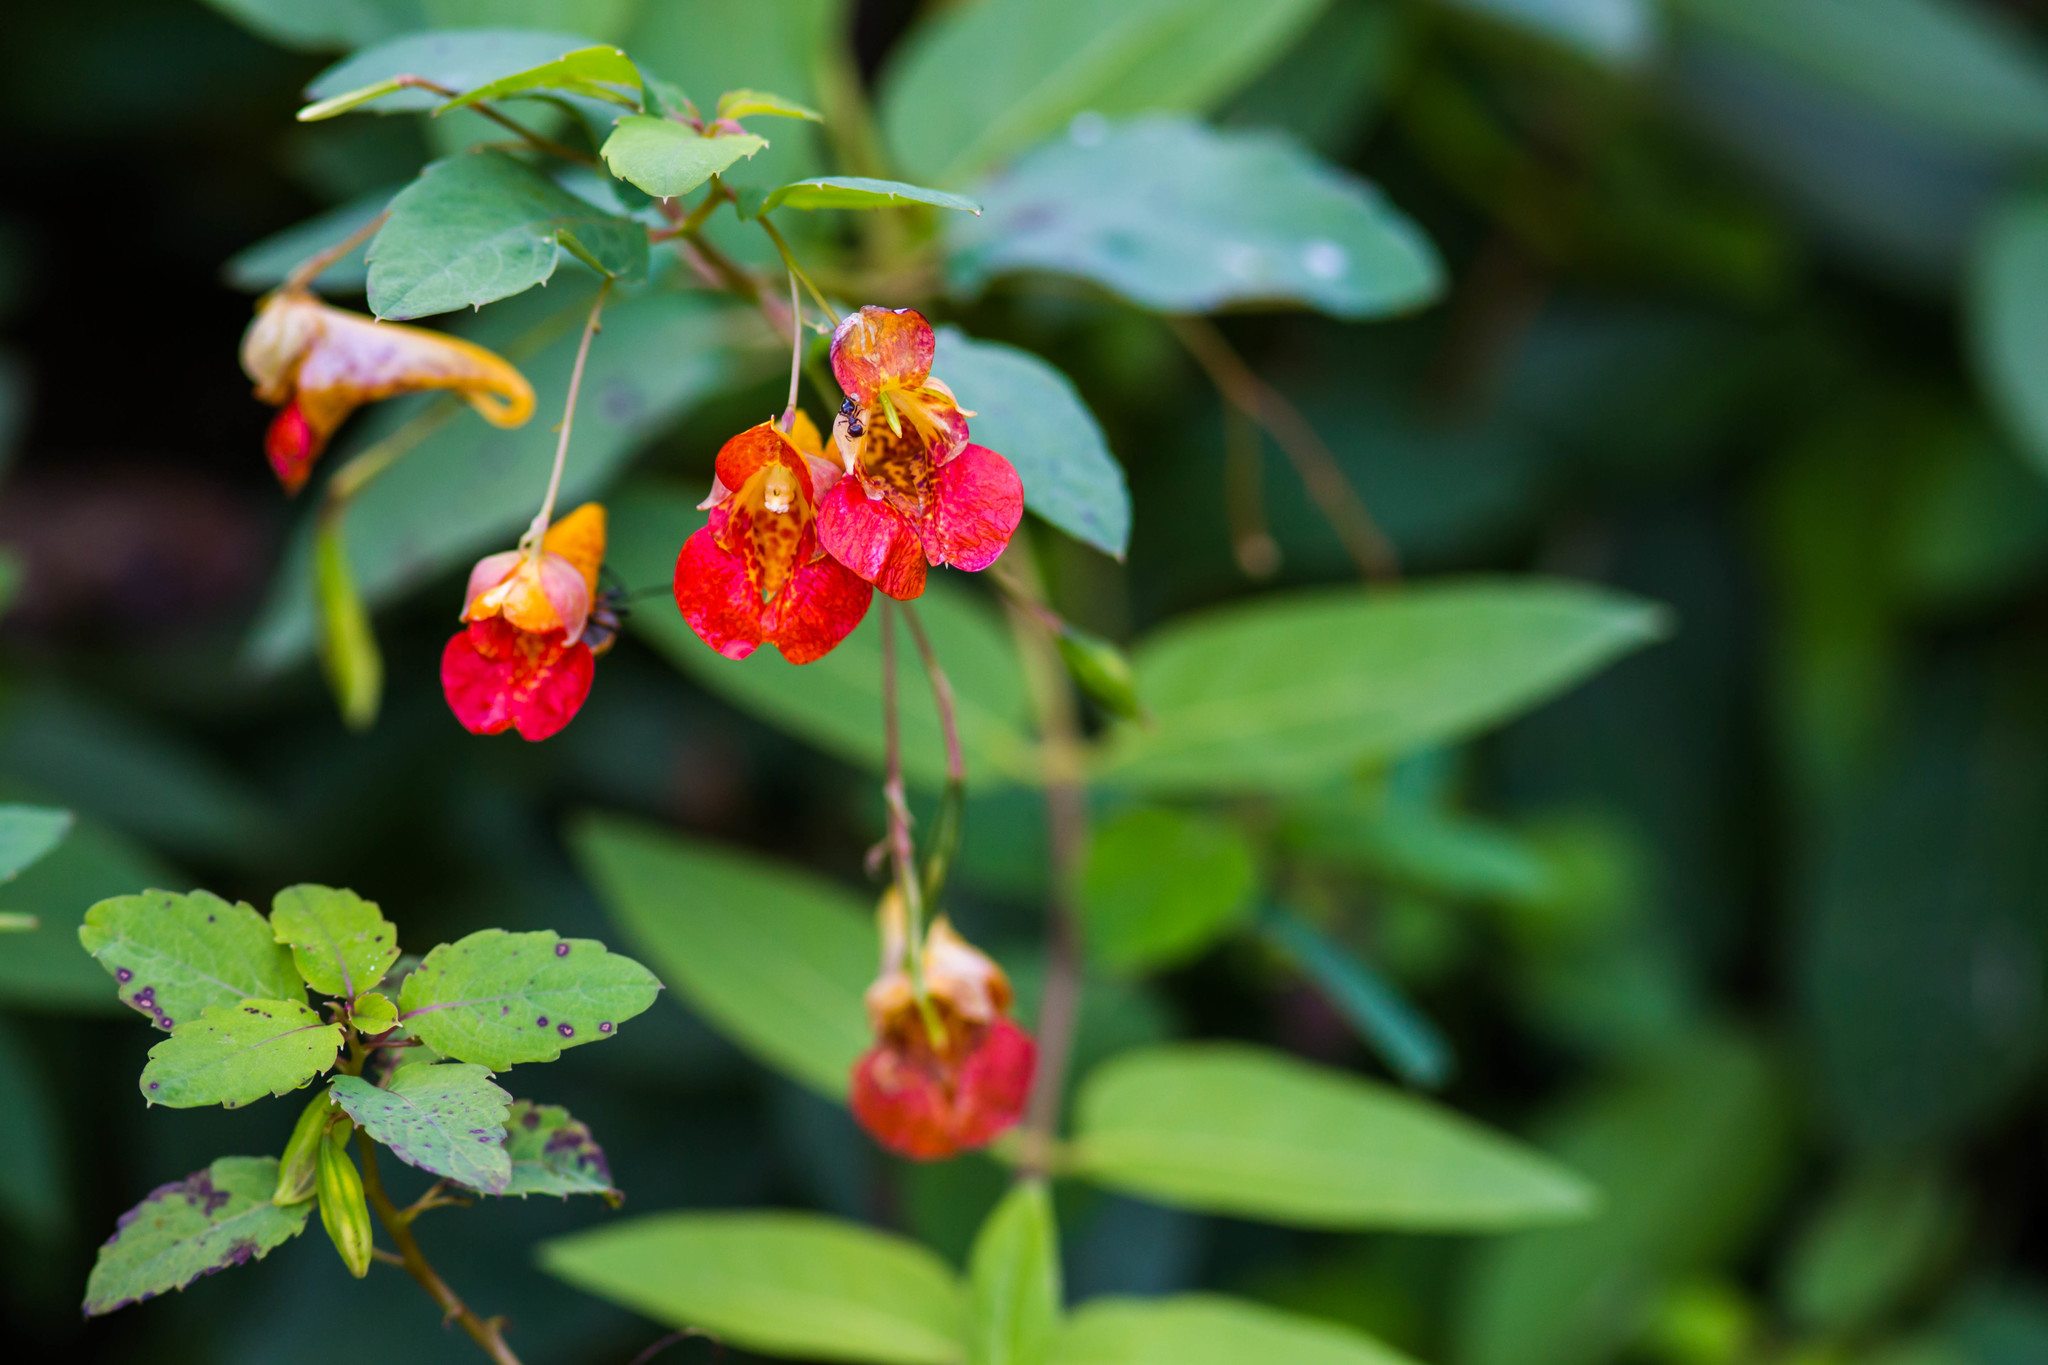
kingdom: Plantae
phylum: Tracheophyta
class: Magnoliopsida
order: Ericales
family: Balsaminaceae
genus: Impatiens
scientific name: Impatiens capensis
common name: Orange balsam
